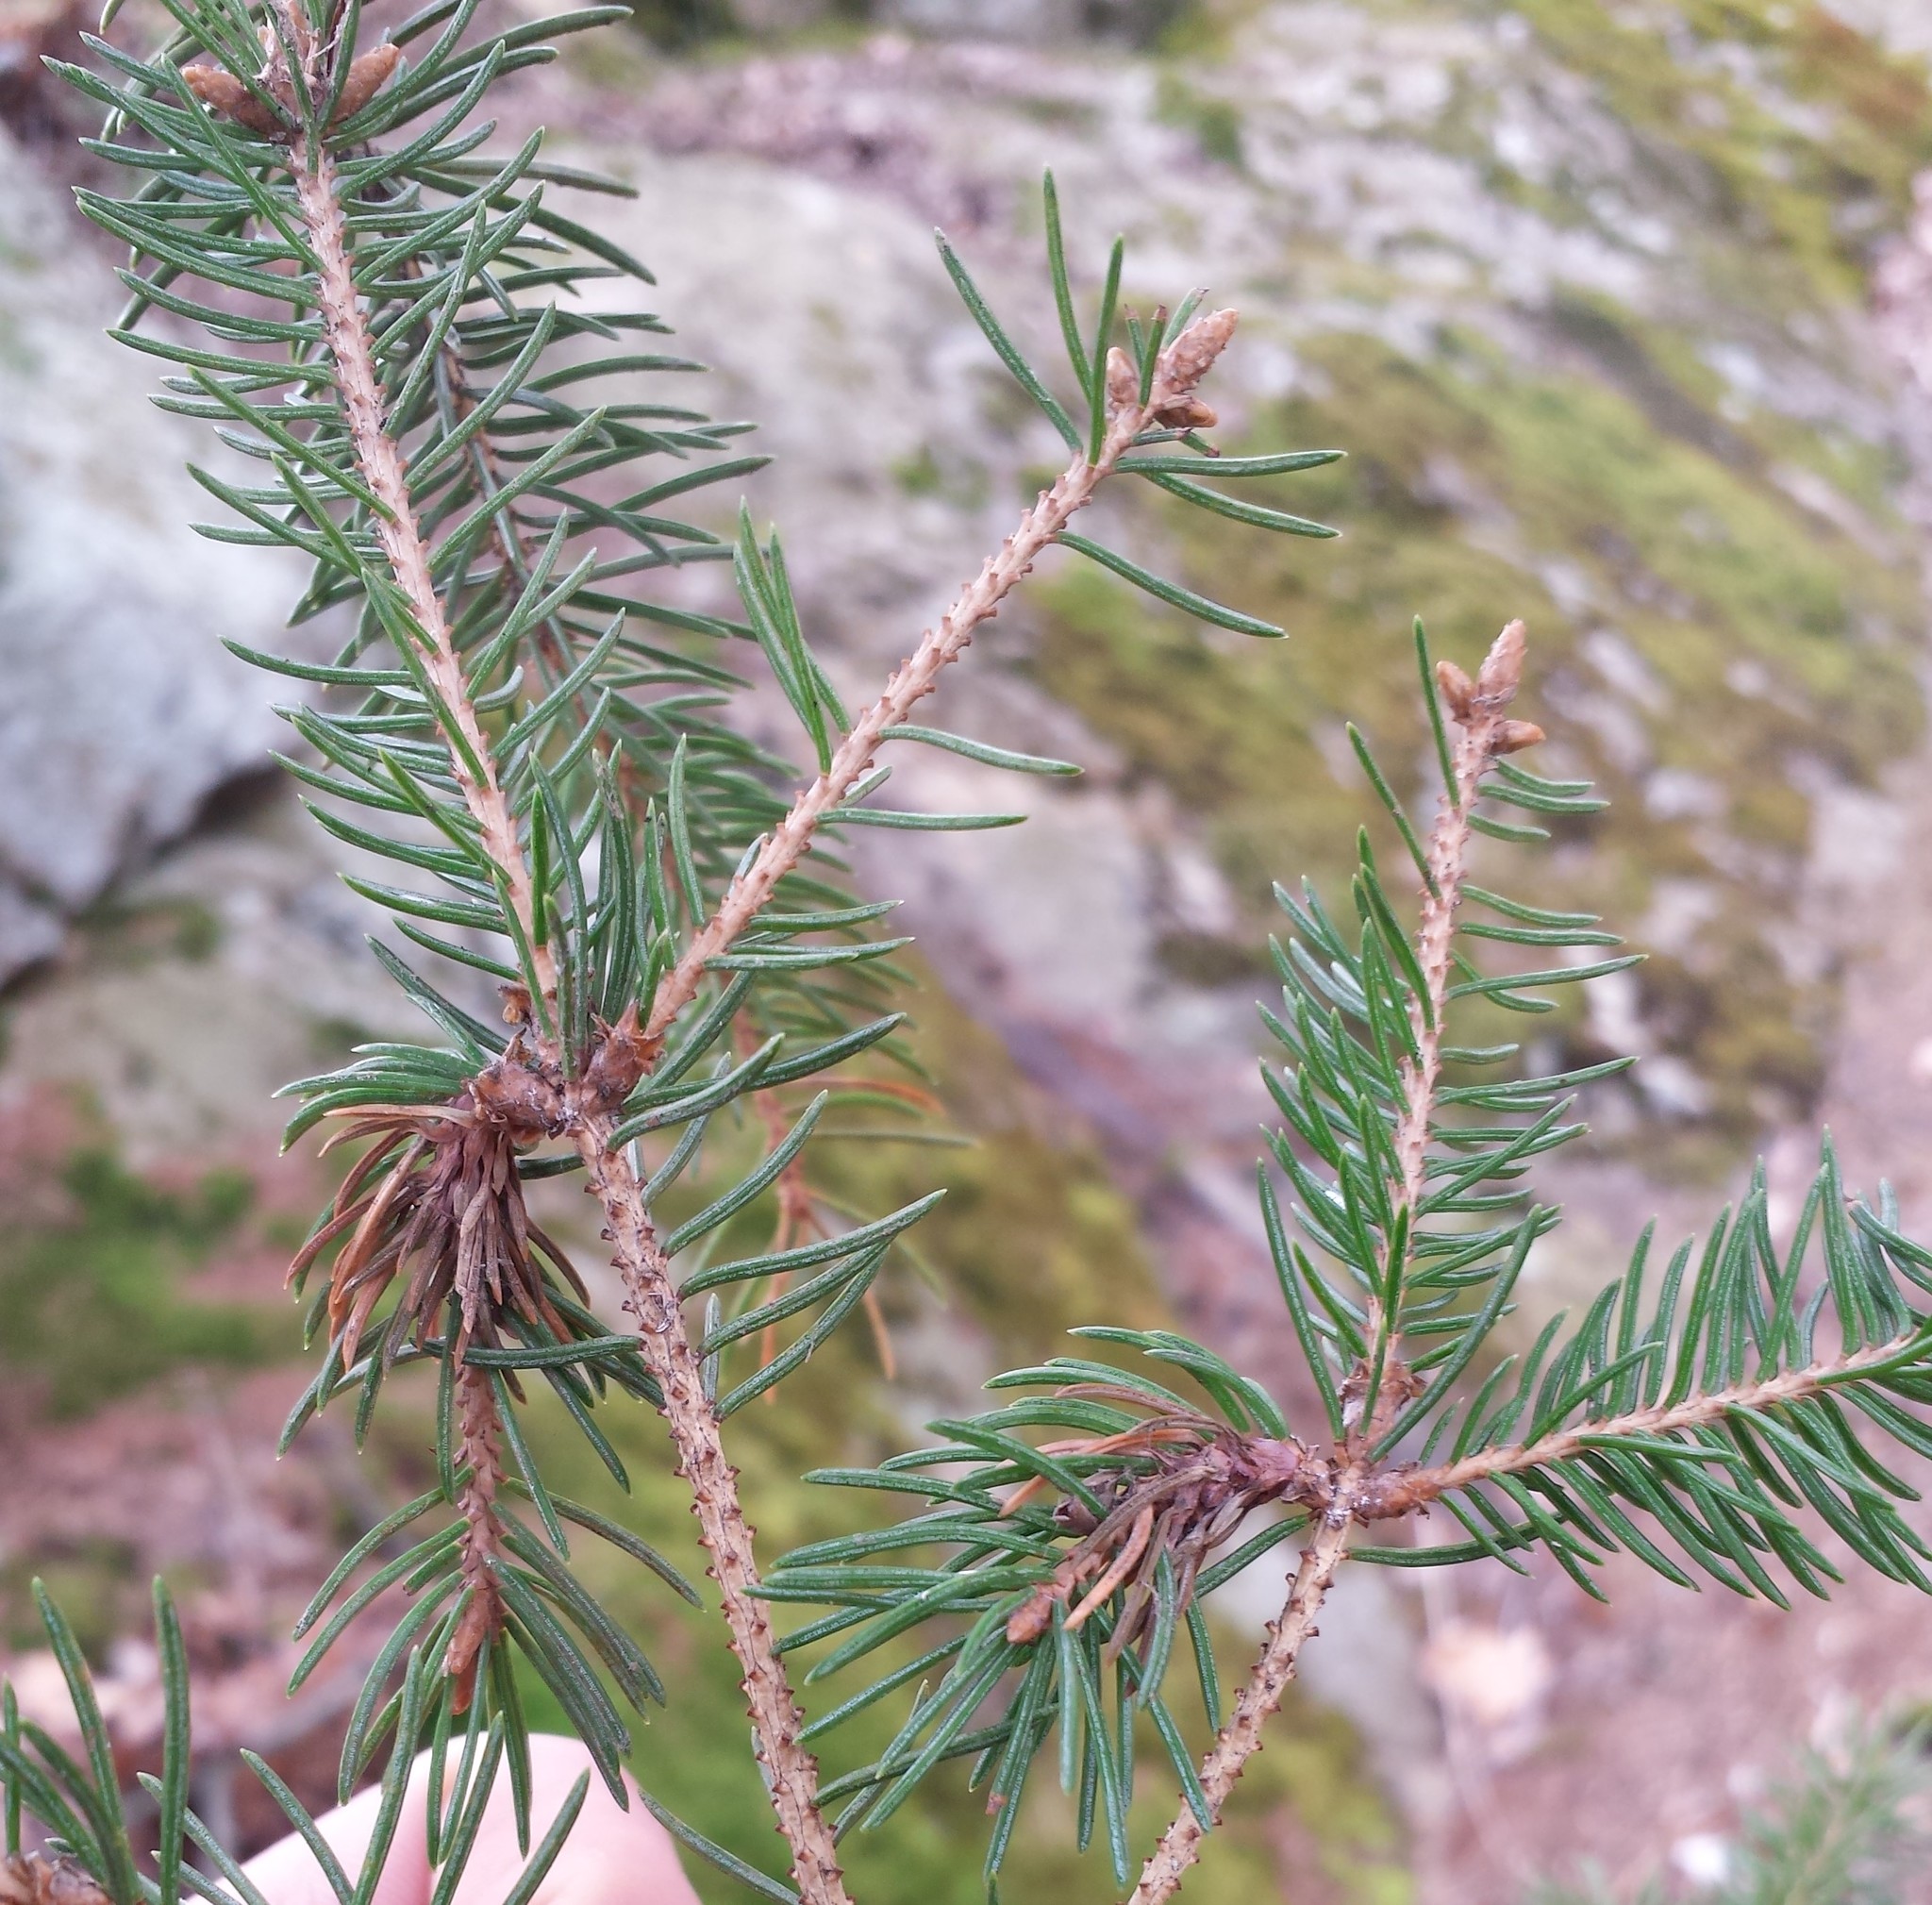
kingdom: Animalia
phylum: Arthropoda
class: Insecta
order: Hemiptera
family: Adelgidae
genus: Adelges
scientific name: Adelges abietis
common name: Eastern spruce gall adelgid
